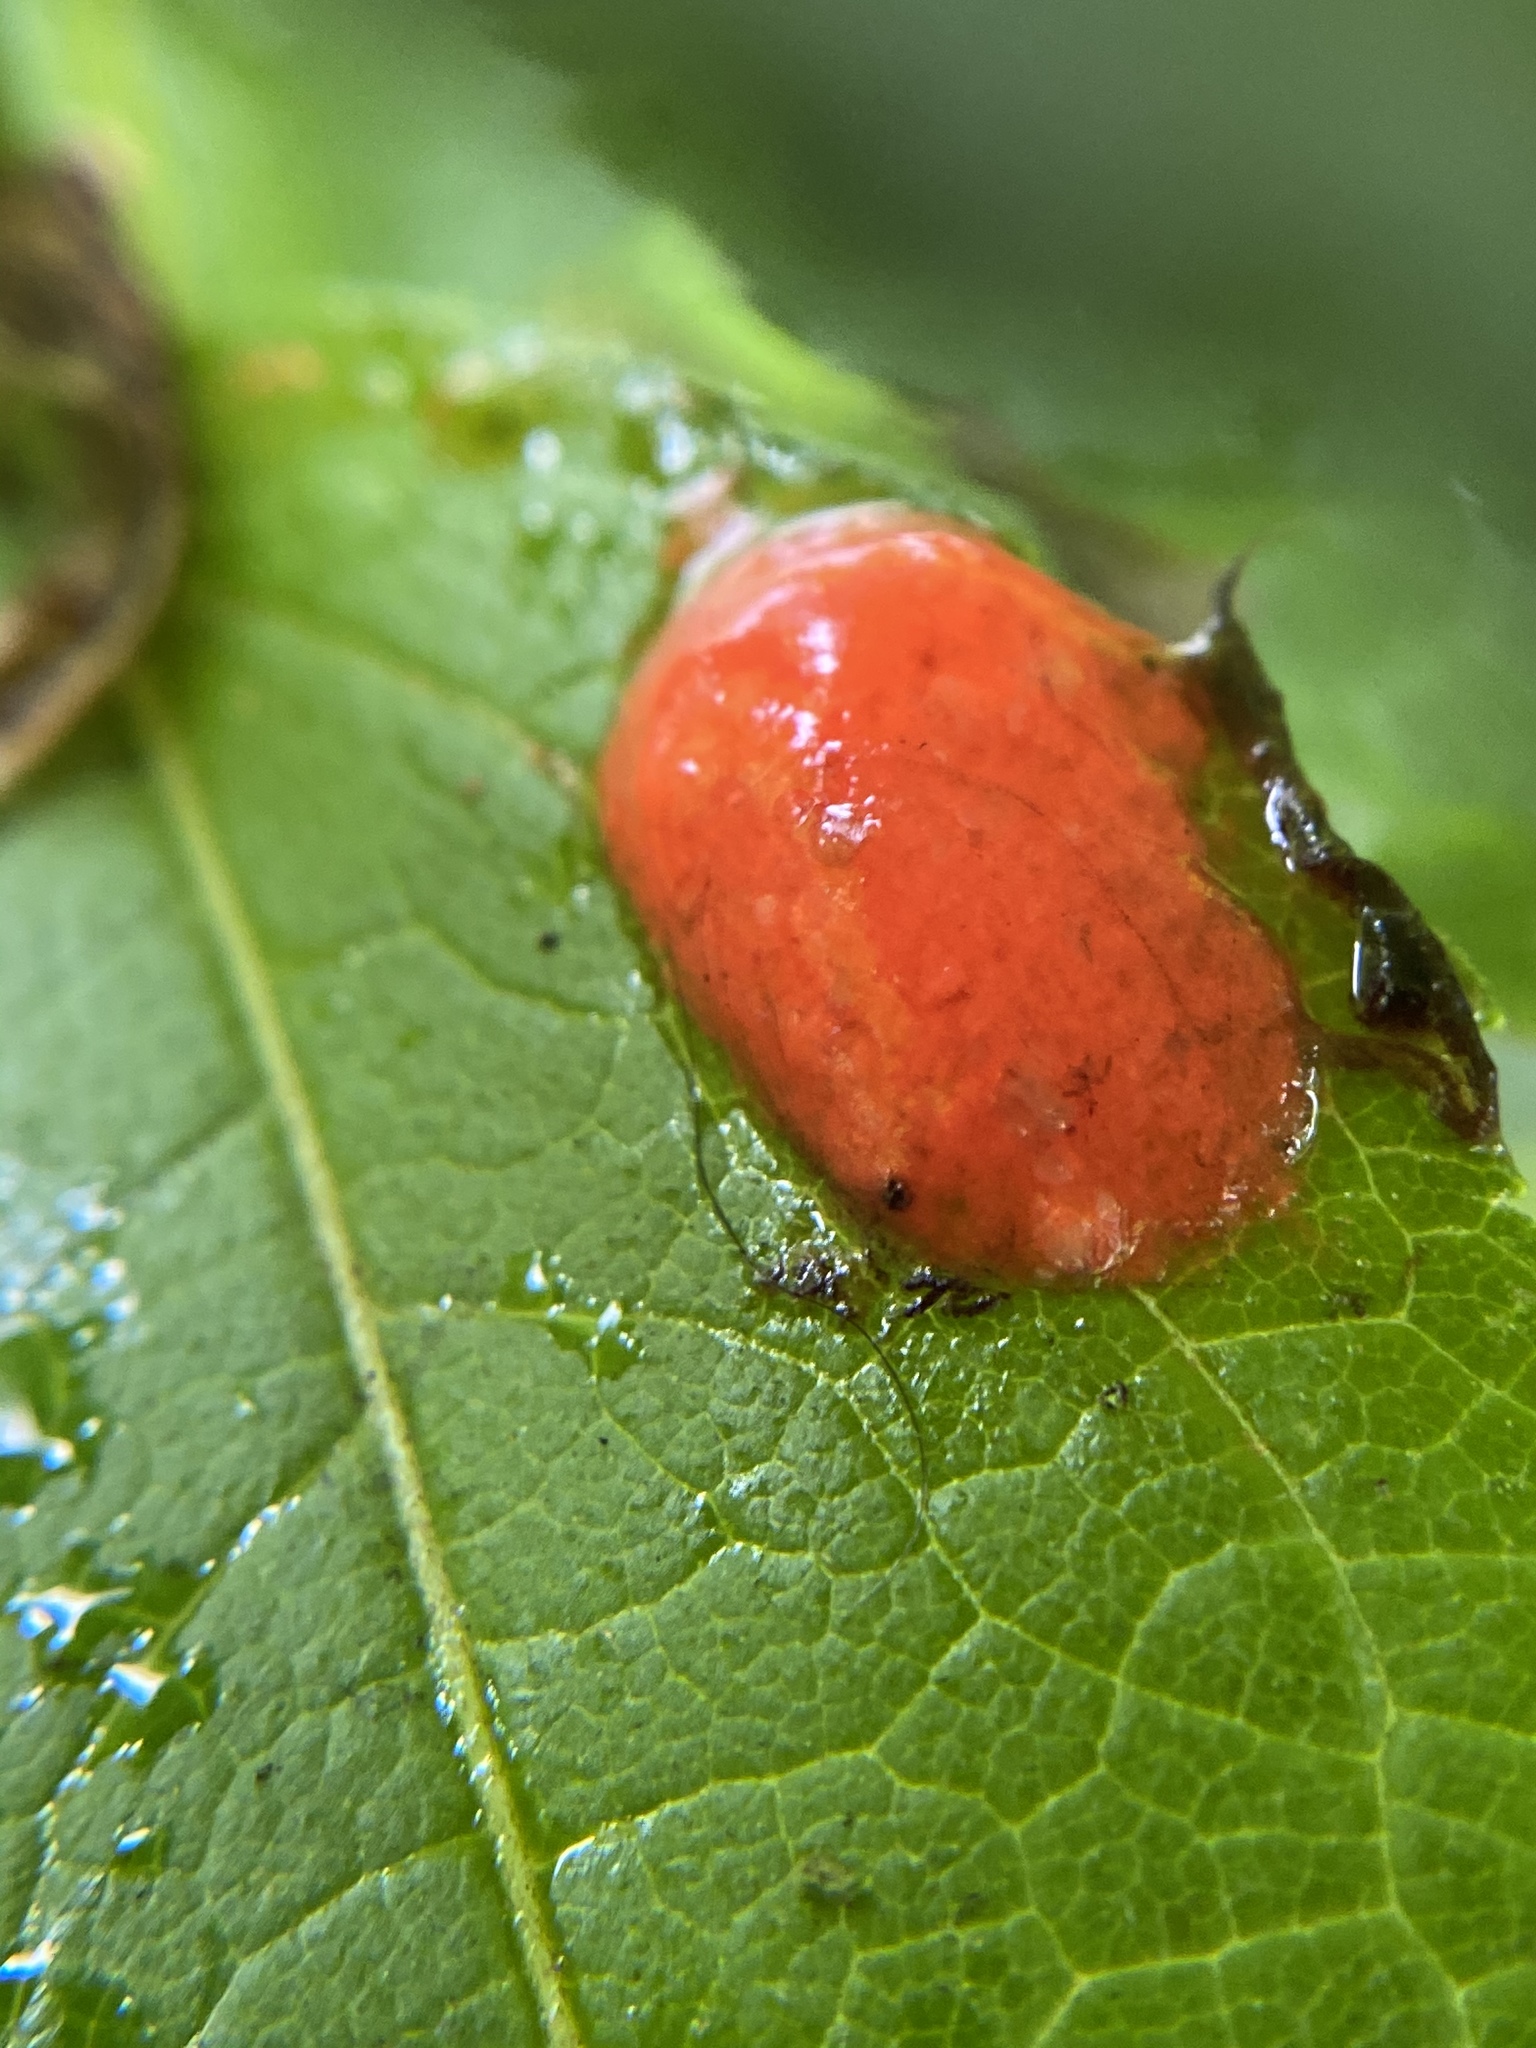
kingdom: Animalia
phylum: Arthropoda
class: Arachnida
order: Trombidiformes
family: Eriophyidae
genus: Eriophyes
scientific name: Eriophyes tiliae
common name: Red nail gall mite
